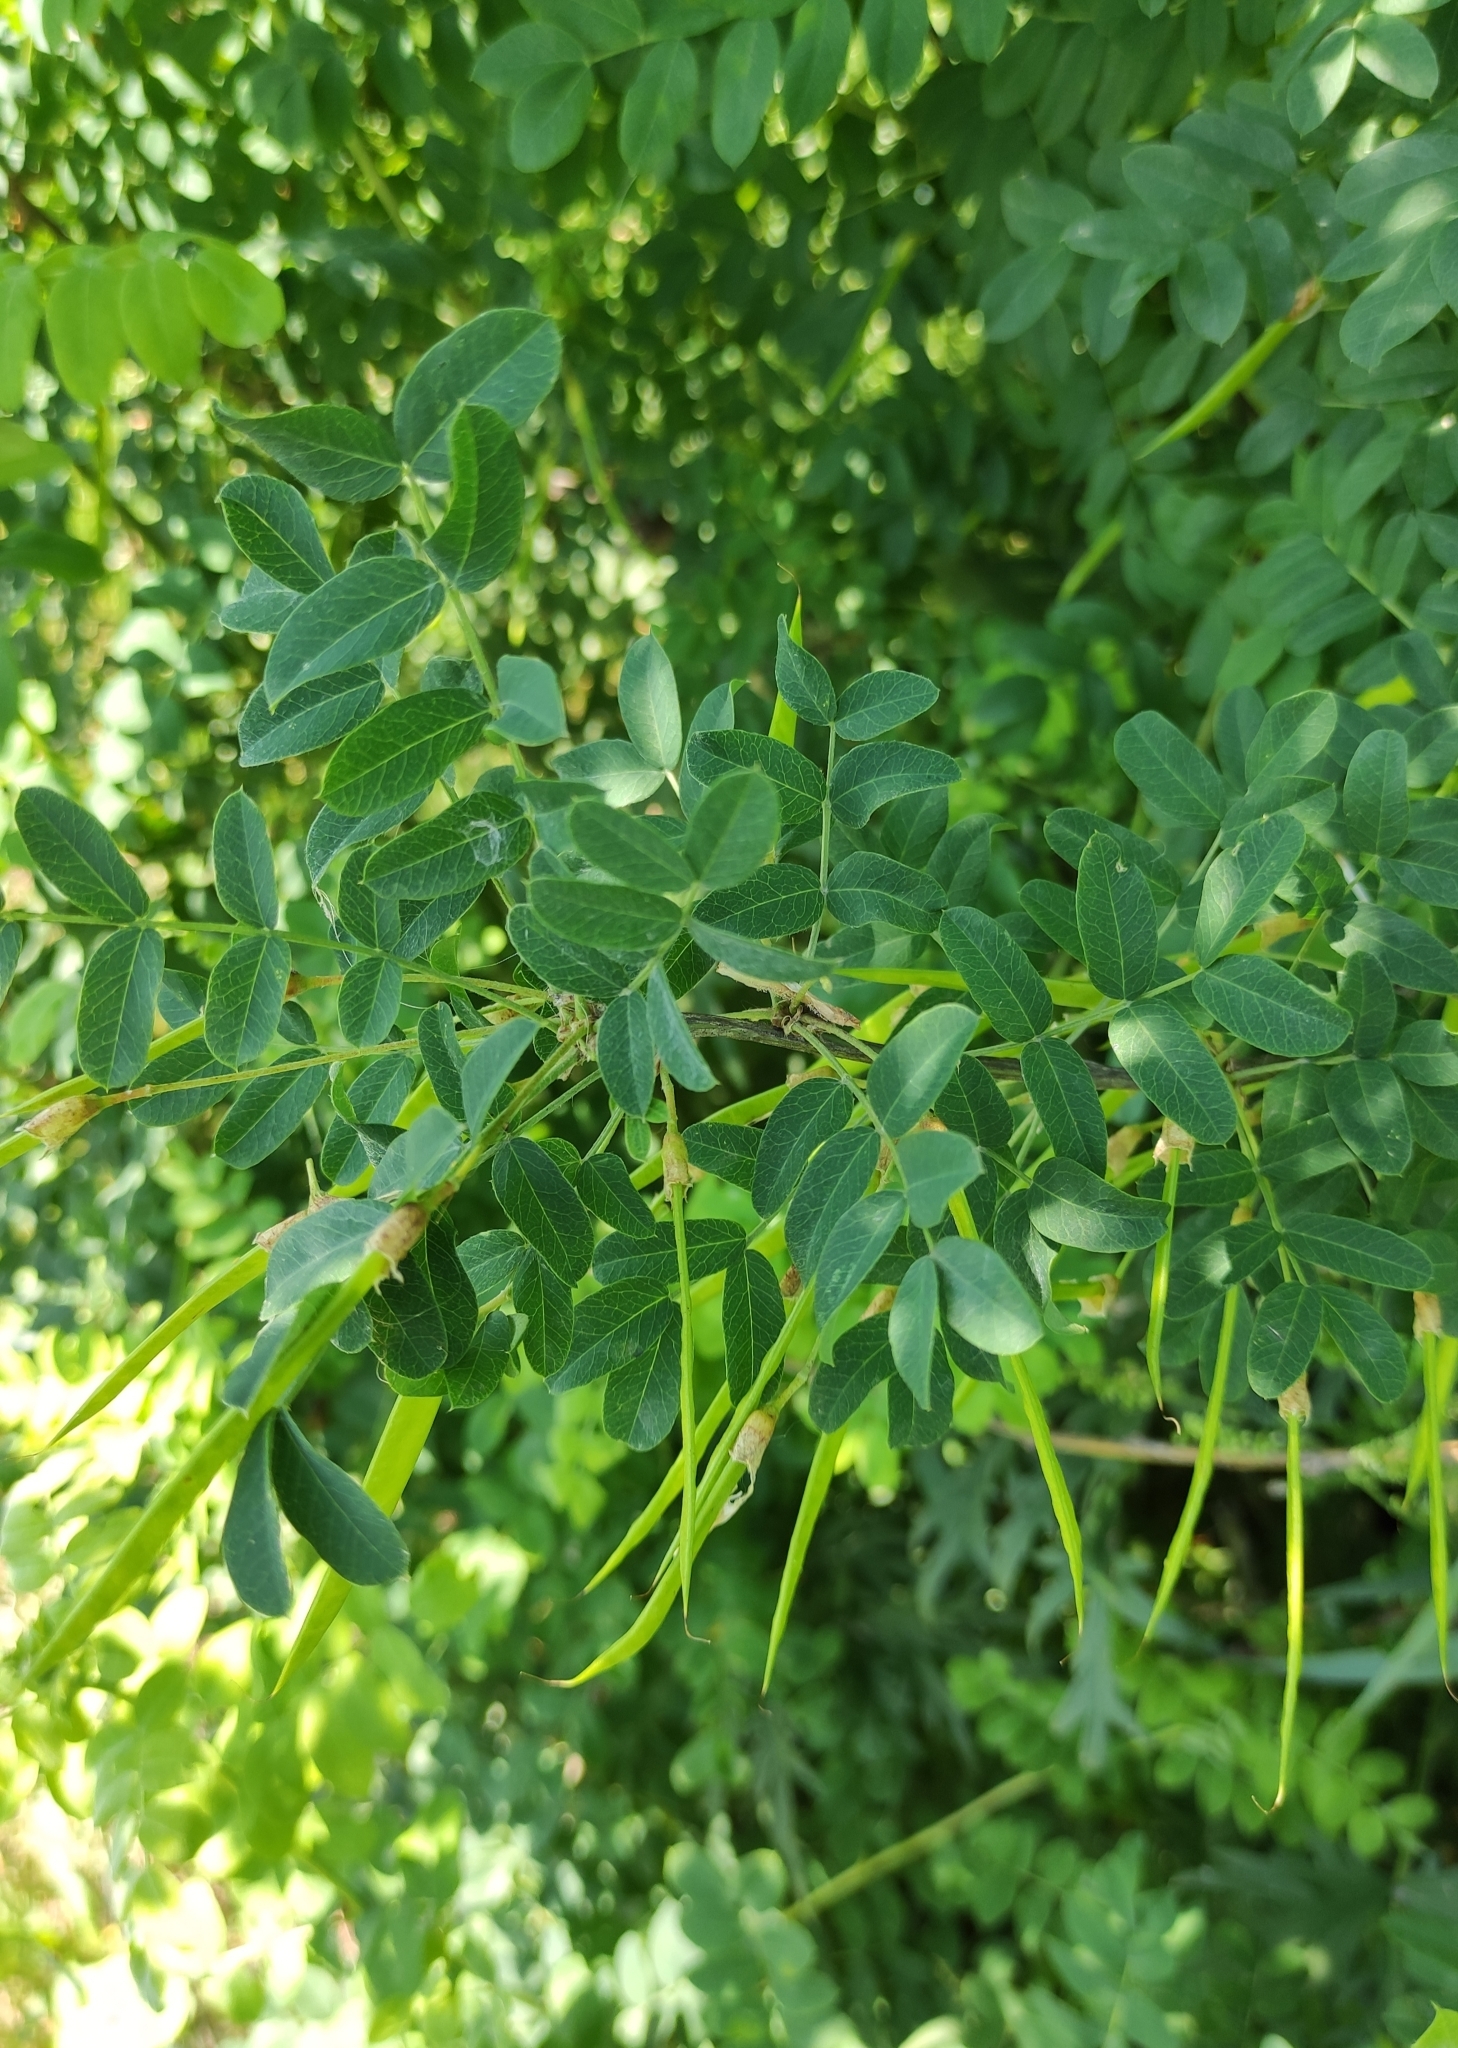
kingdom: Plantae
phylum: Tracheophyta
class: Magnoliopsida
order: Fabales
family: Fabaceae
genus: Caragana
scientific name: Caragana arborescens
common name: Siberian peashrub
